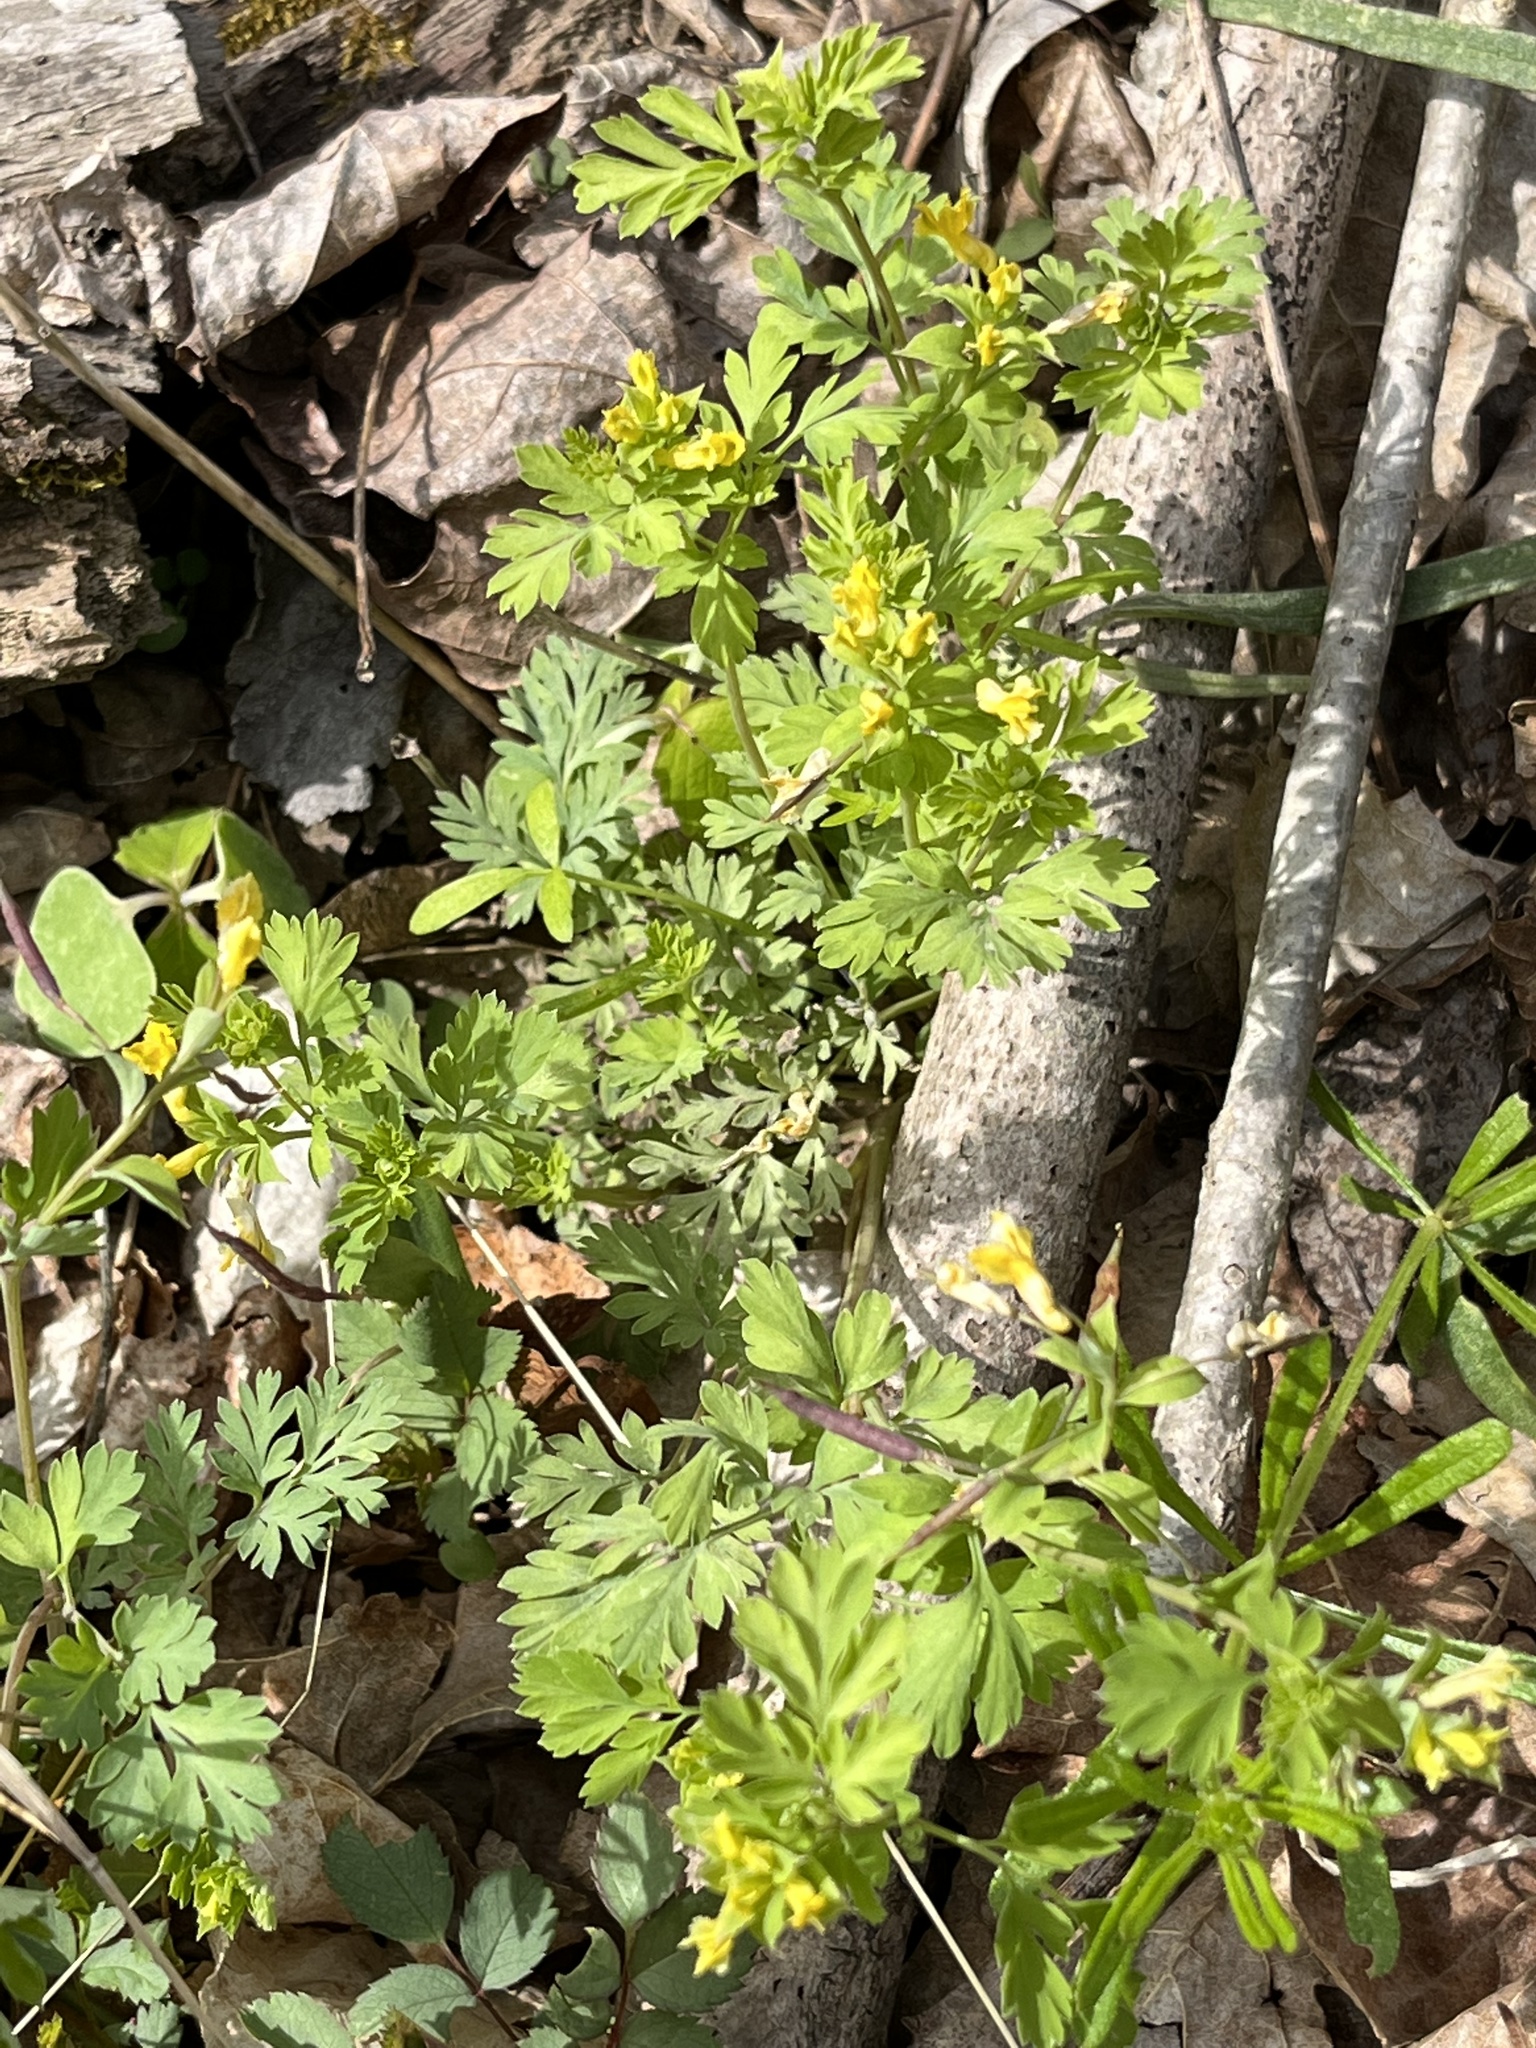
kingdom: Plantae
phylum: Tracheophyta
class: Magnoliopsida
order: Ranunculales
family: Papaveraceae
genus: Corydalis
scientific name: Corydalis flavula
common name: Yellow corydalis
